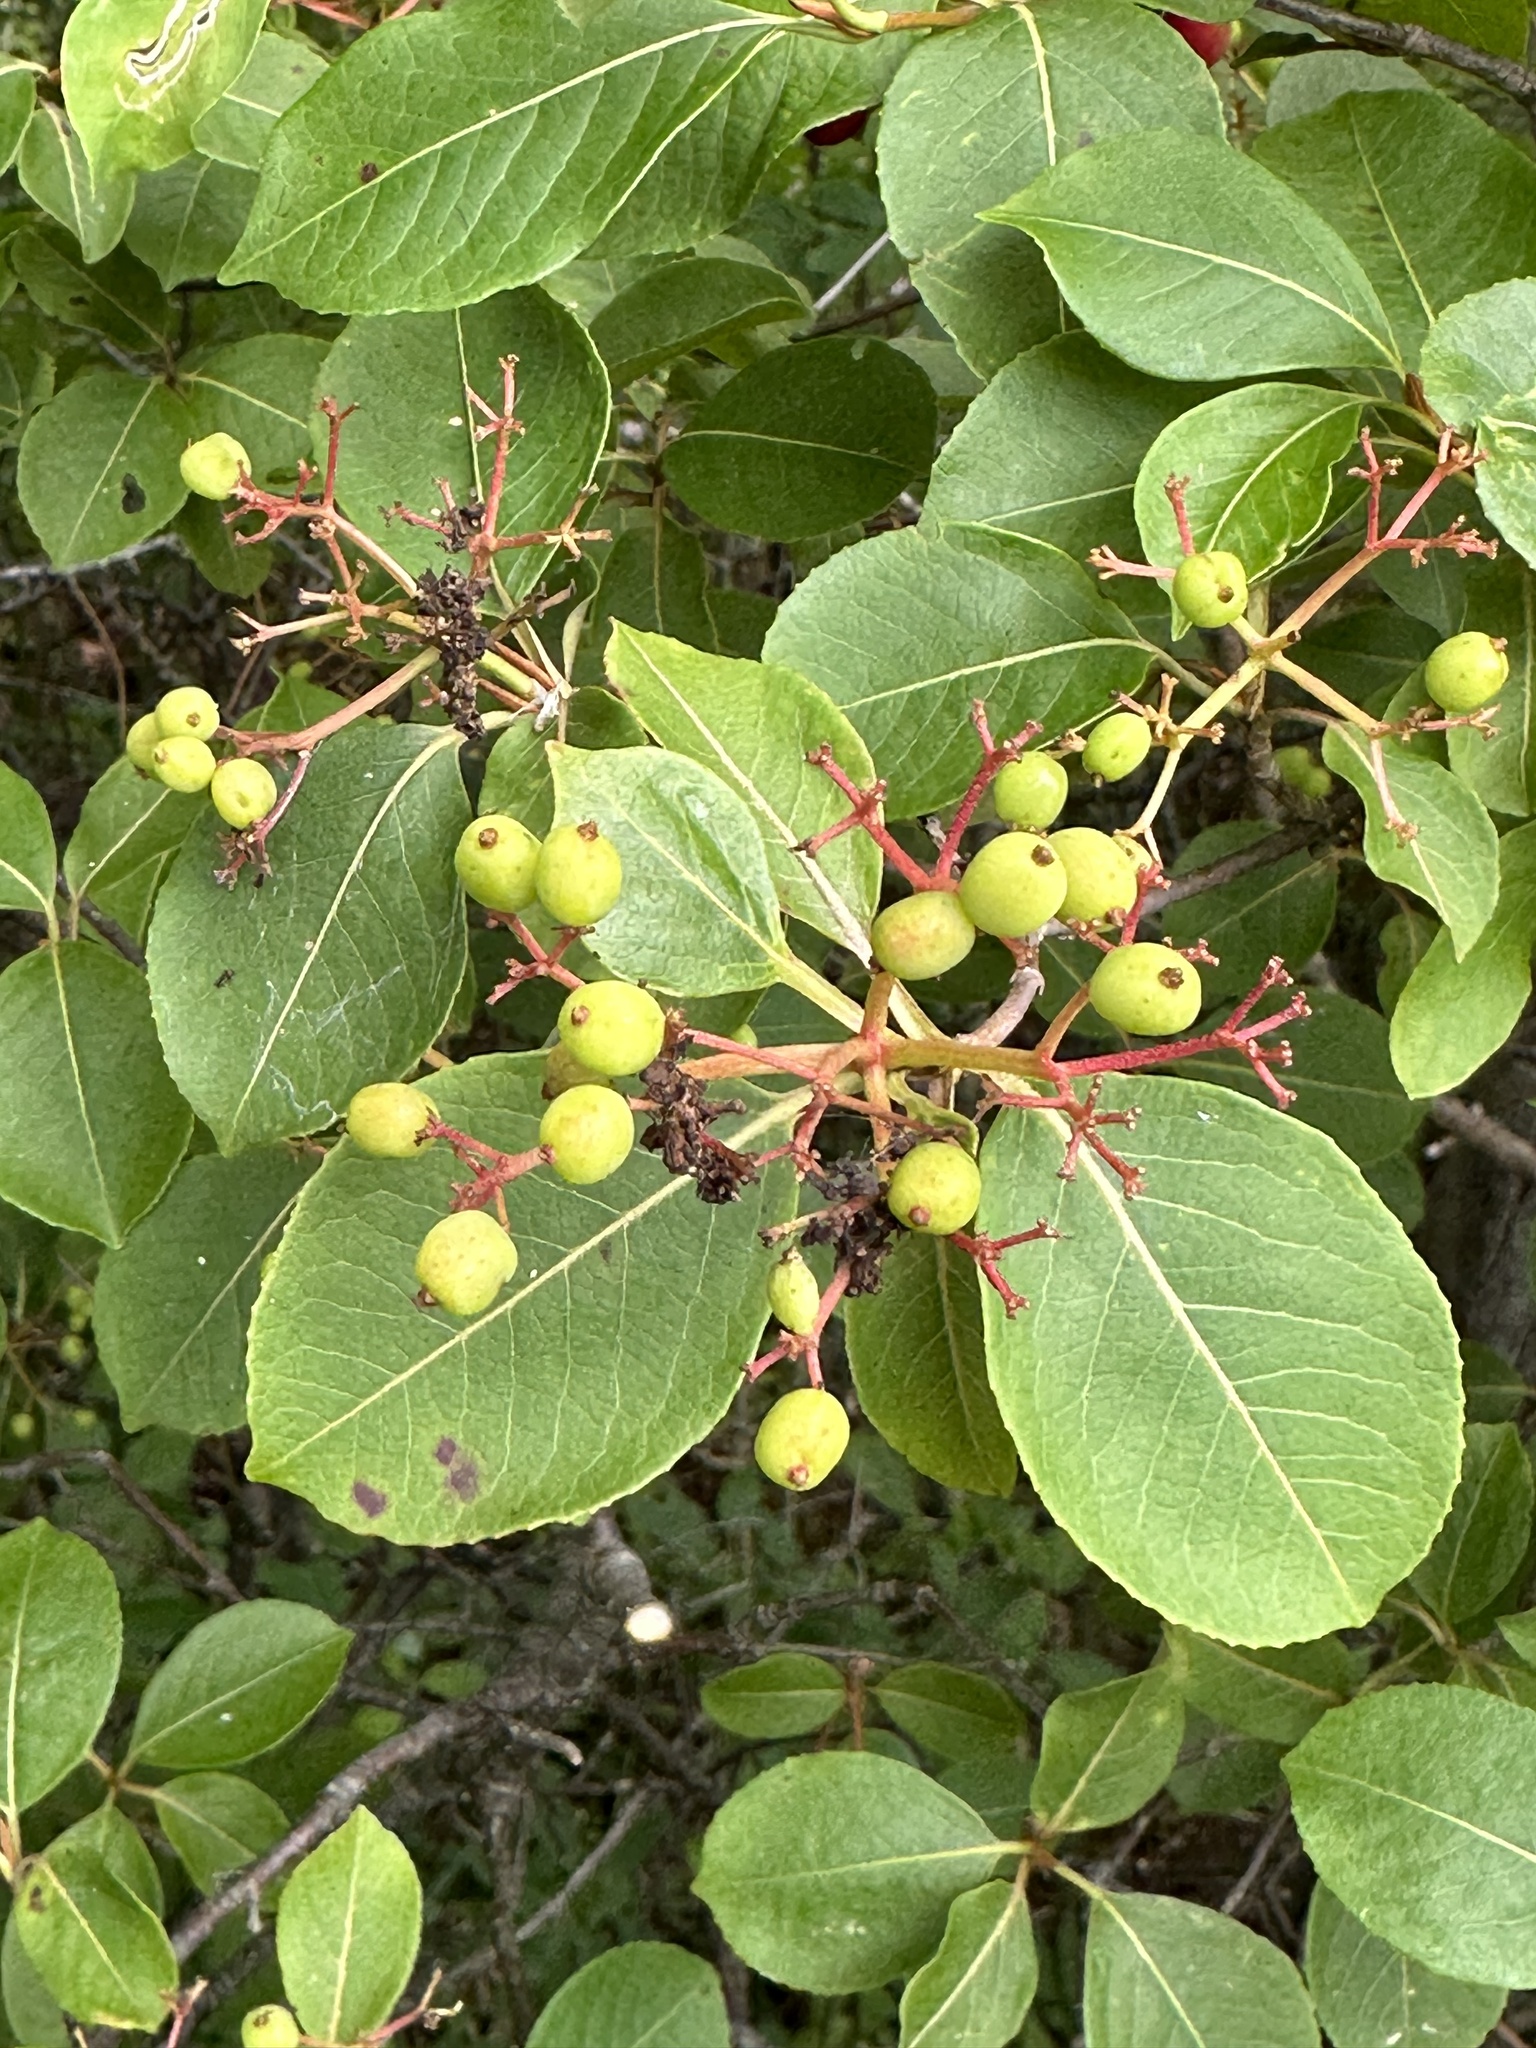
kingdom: Plantae
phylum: Tracheophyta
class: Magnoliopsida
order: Dipsacales
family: Viburnaceae
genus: Viburnum
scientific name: Viburnum cassinoides
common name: Swamp haw
